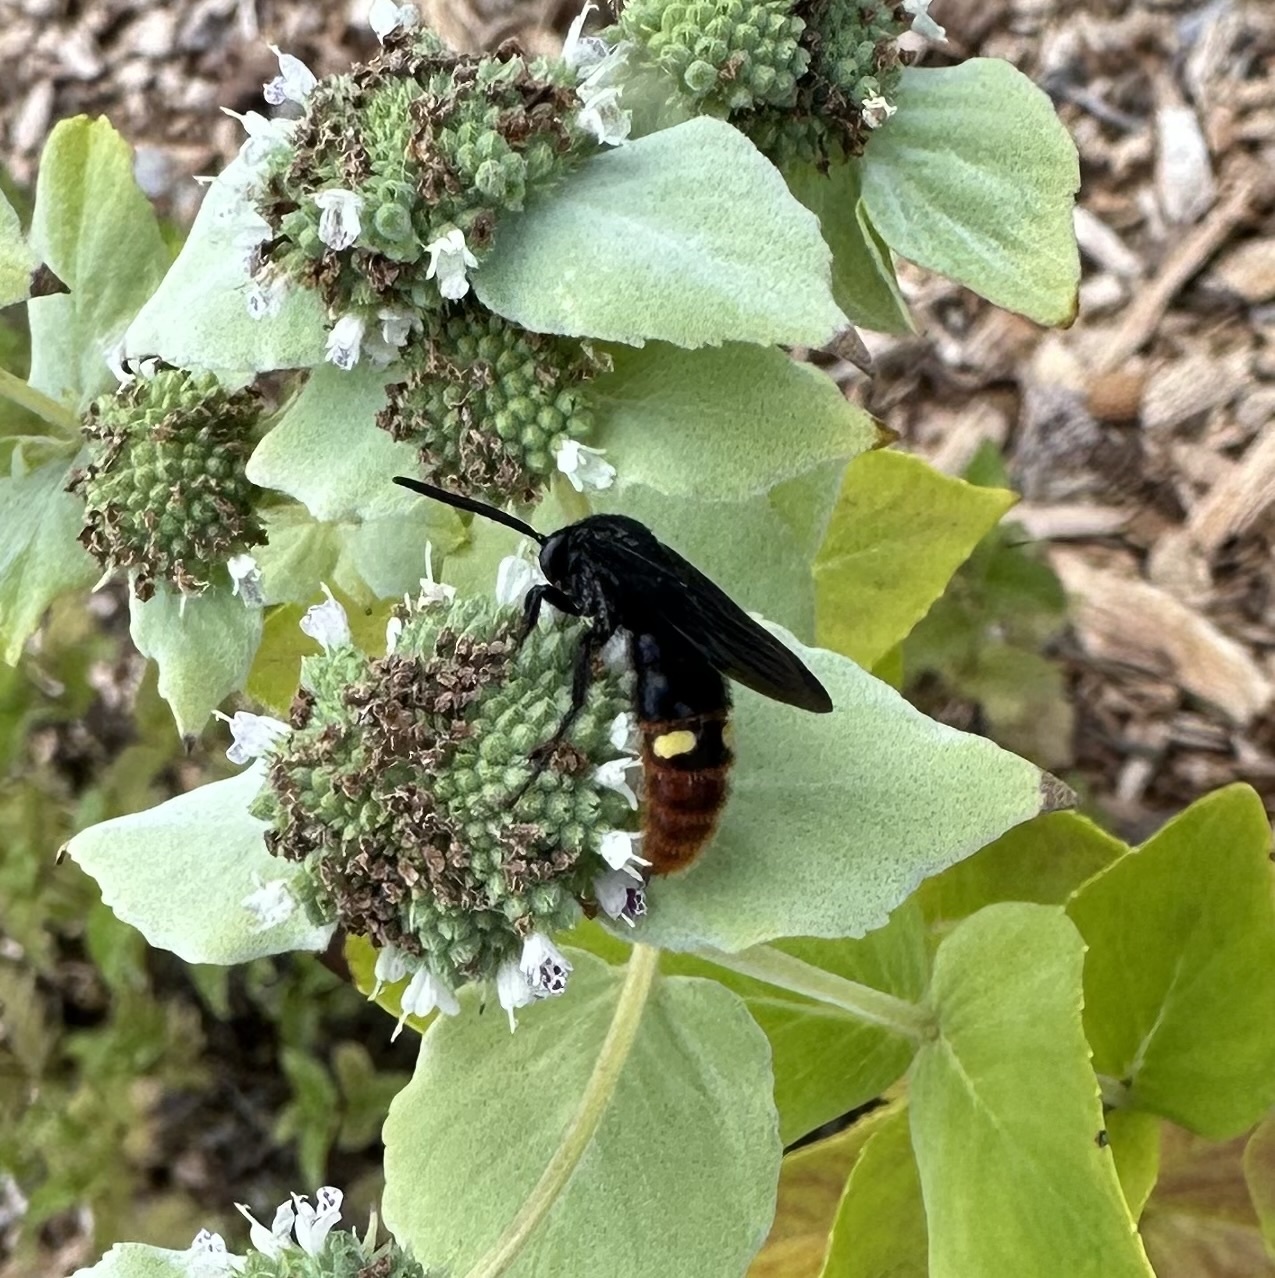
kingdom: Animalia
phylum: Arthropoda
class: Insecta
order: Hymenoptera
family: Scoliidae
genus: Scolia
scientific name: Scolia dubia
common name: Blue-winged scoliid wasp
